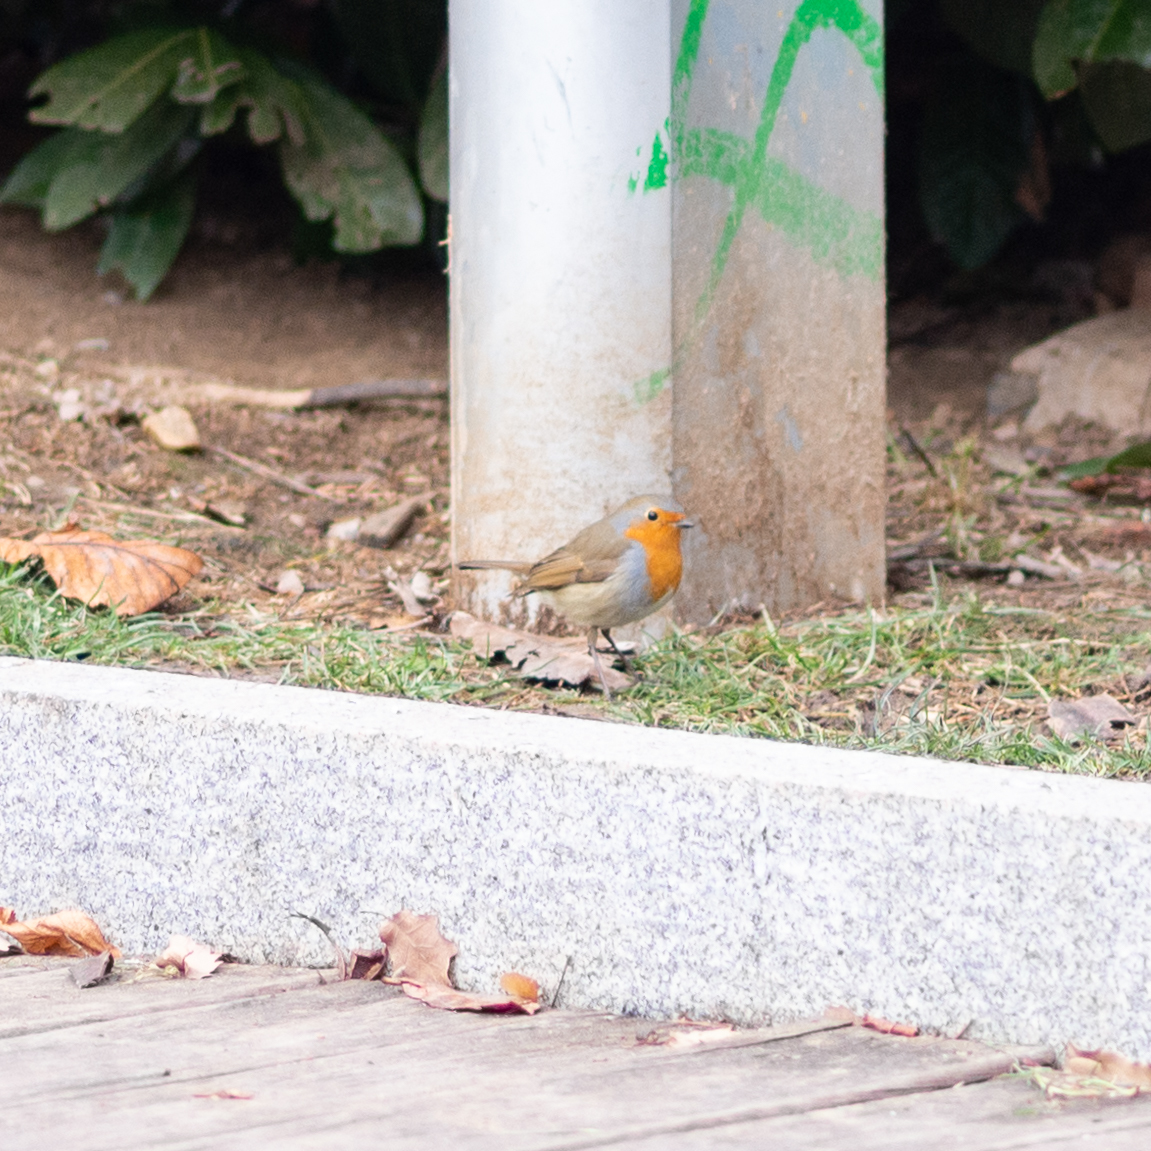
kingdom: Animalia
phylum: Chordata
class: Aves
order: Passeriformes
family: Muscicapidae
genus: Erithacus
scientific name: Erithacus rubecula
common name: European robin
